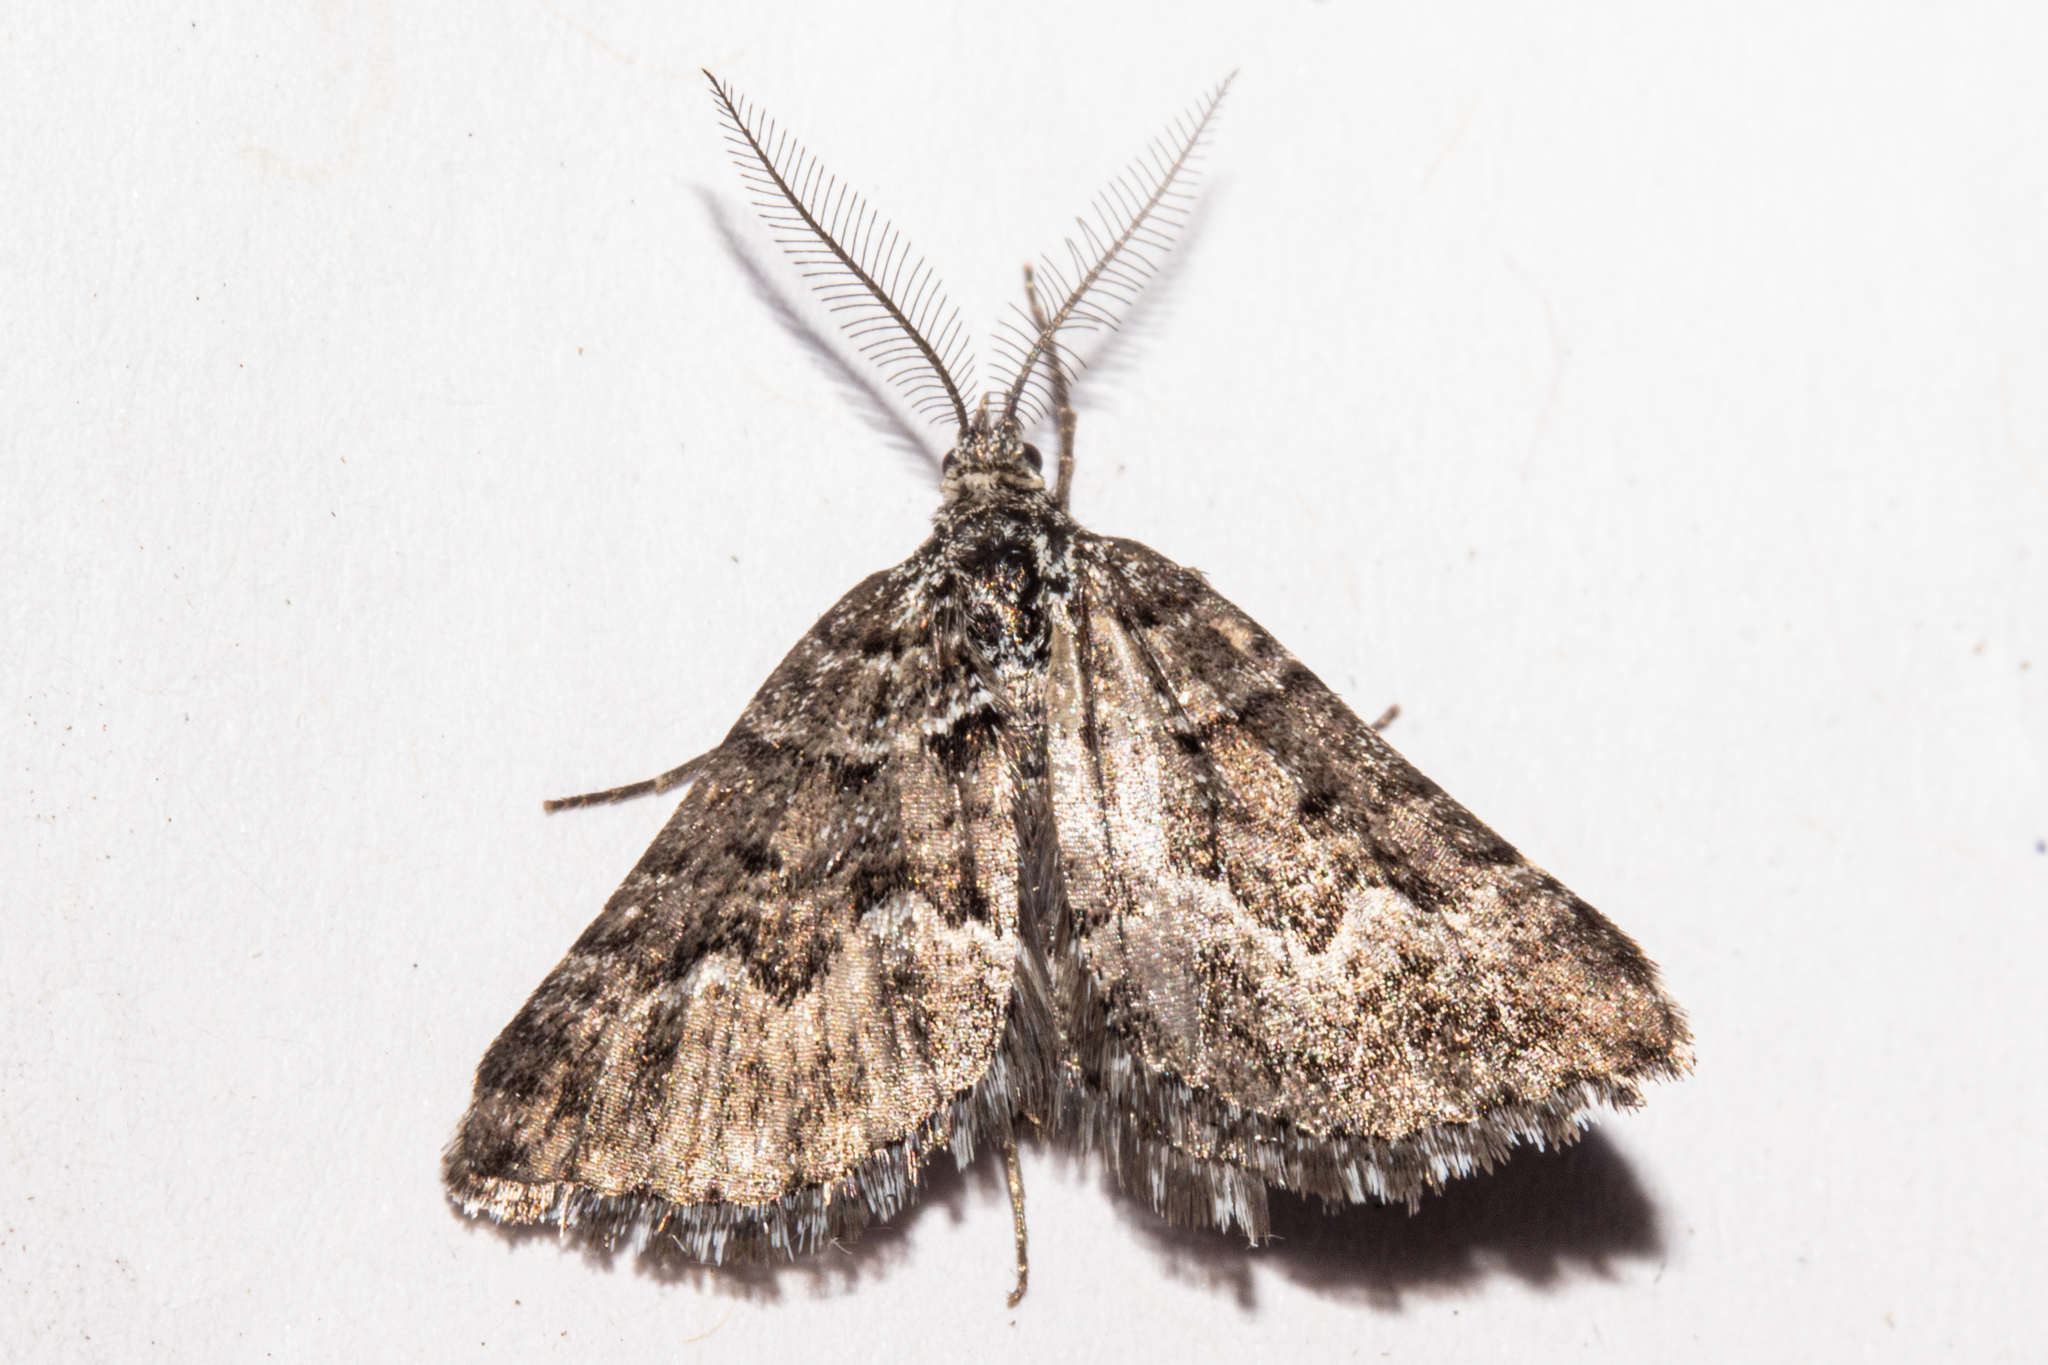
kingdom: Animalia
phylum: Arthropoda
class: Insecta
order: Lepidoptera
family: Geometridae
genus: Aponotoreas
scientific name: Aponotoreas anthracias
